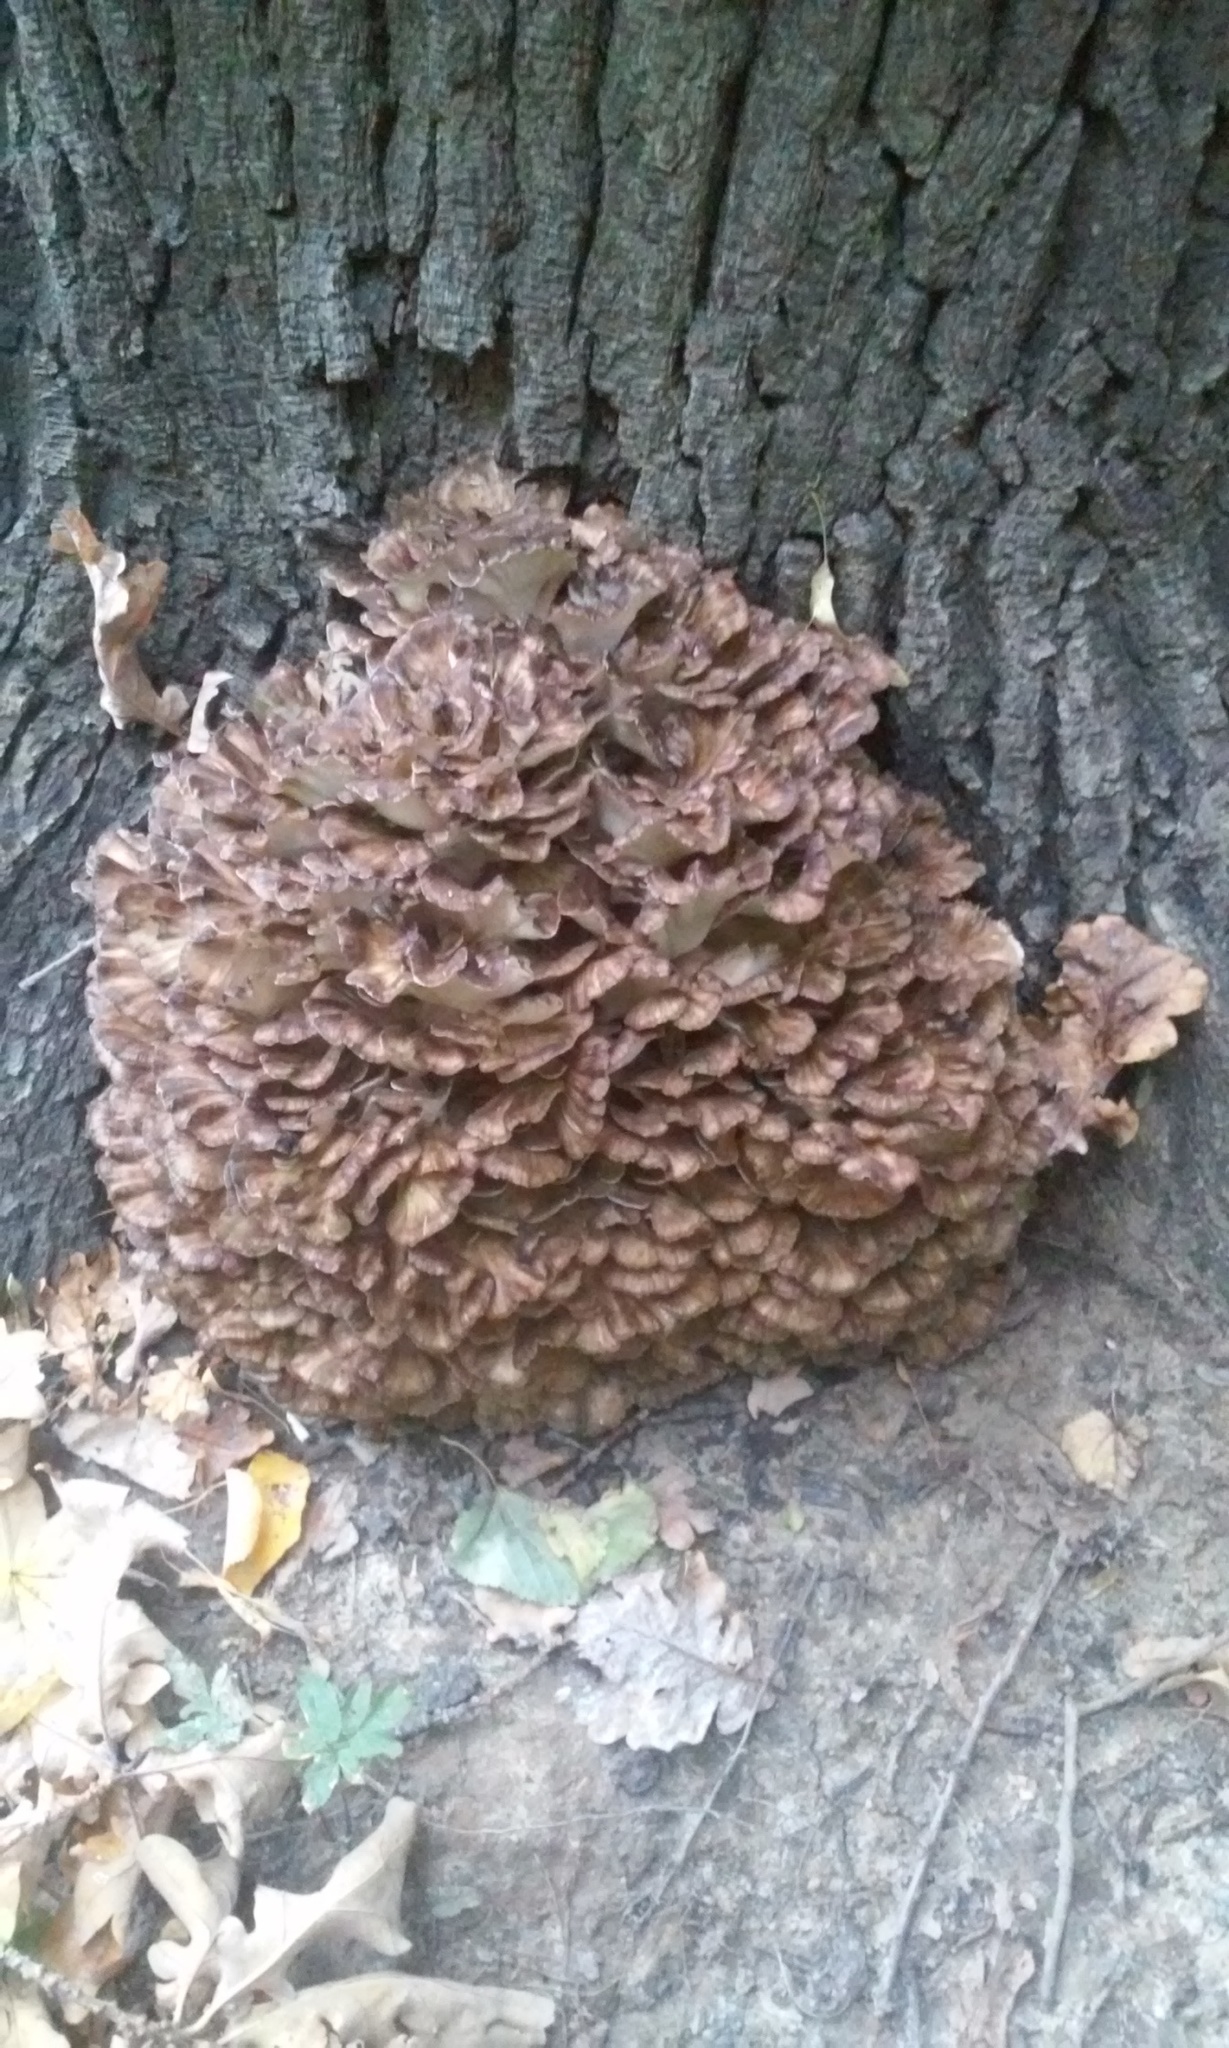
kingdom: Fungi
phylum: Basidiomycota
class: Agaricomycetes
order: Polyporales
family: Grifolaceae
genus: Grifola
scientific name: Grifola frondosa
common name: Hen of the woods
